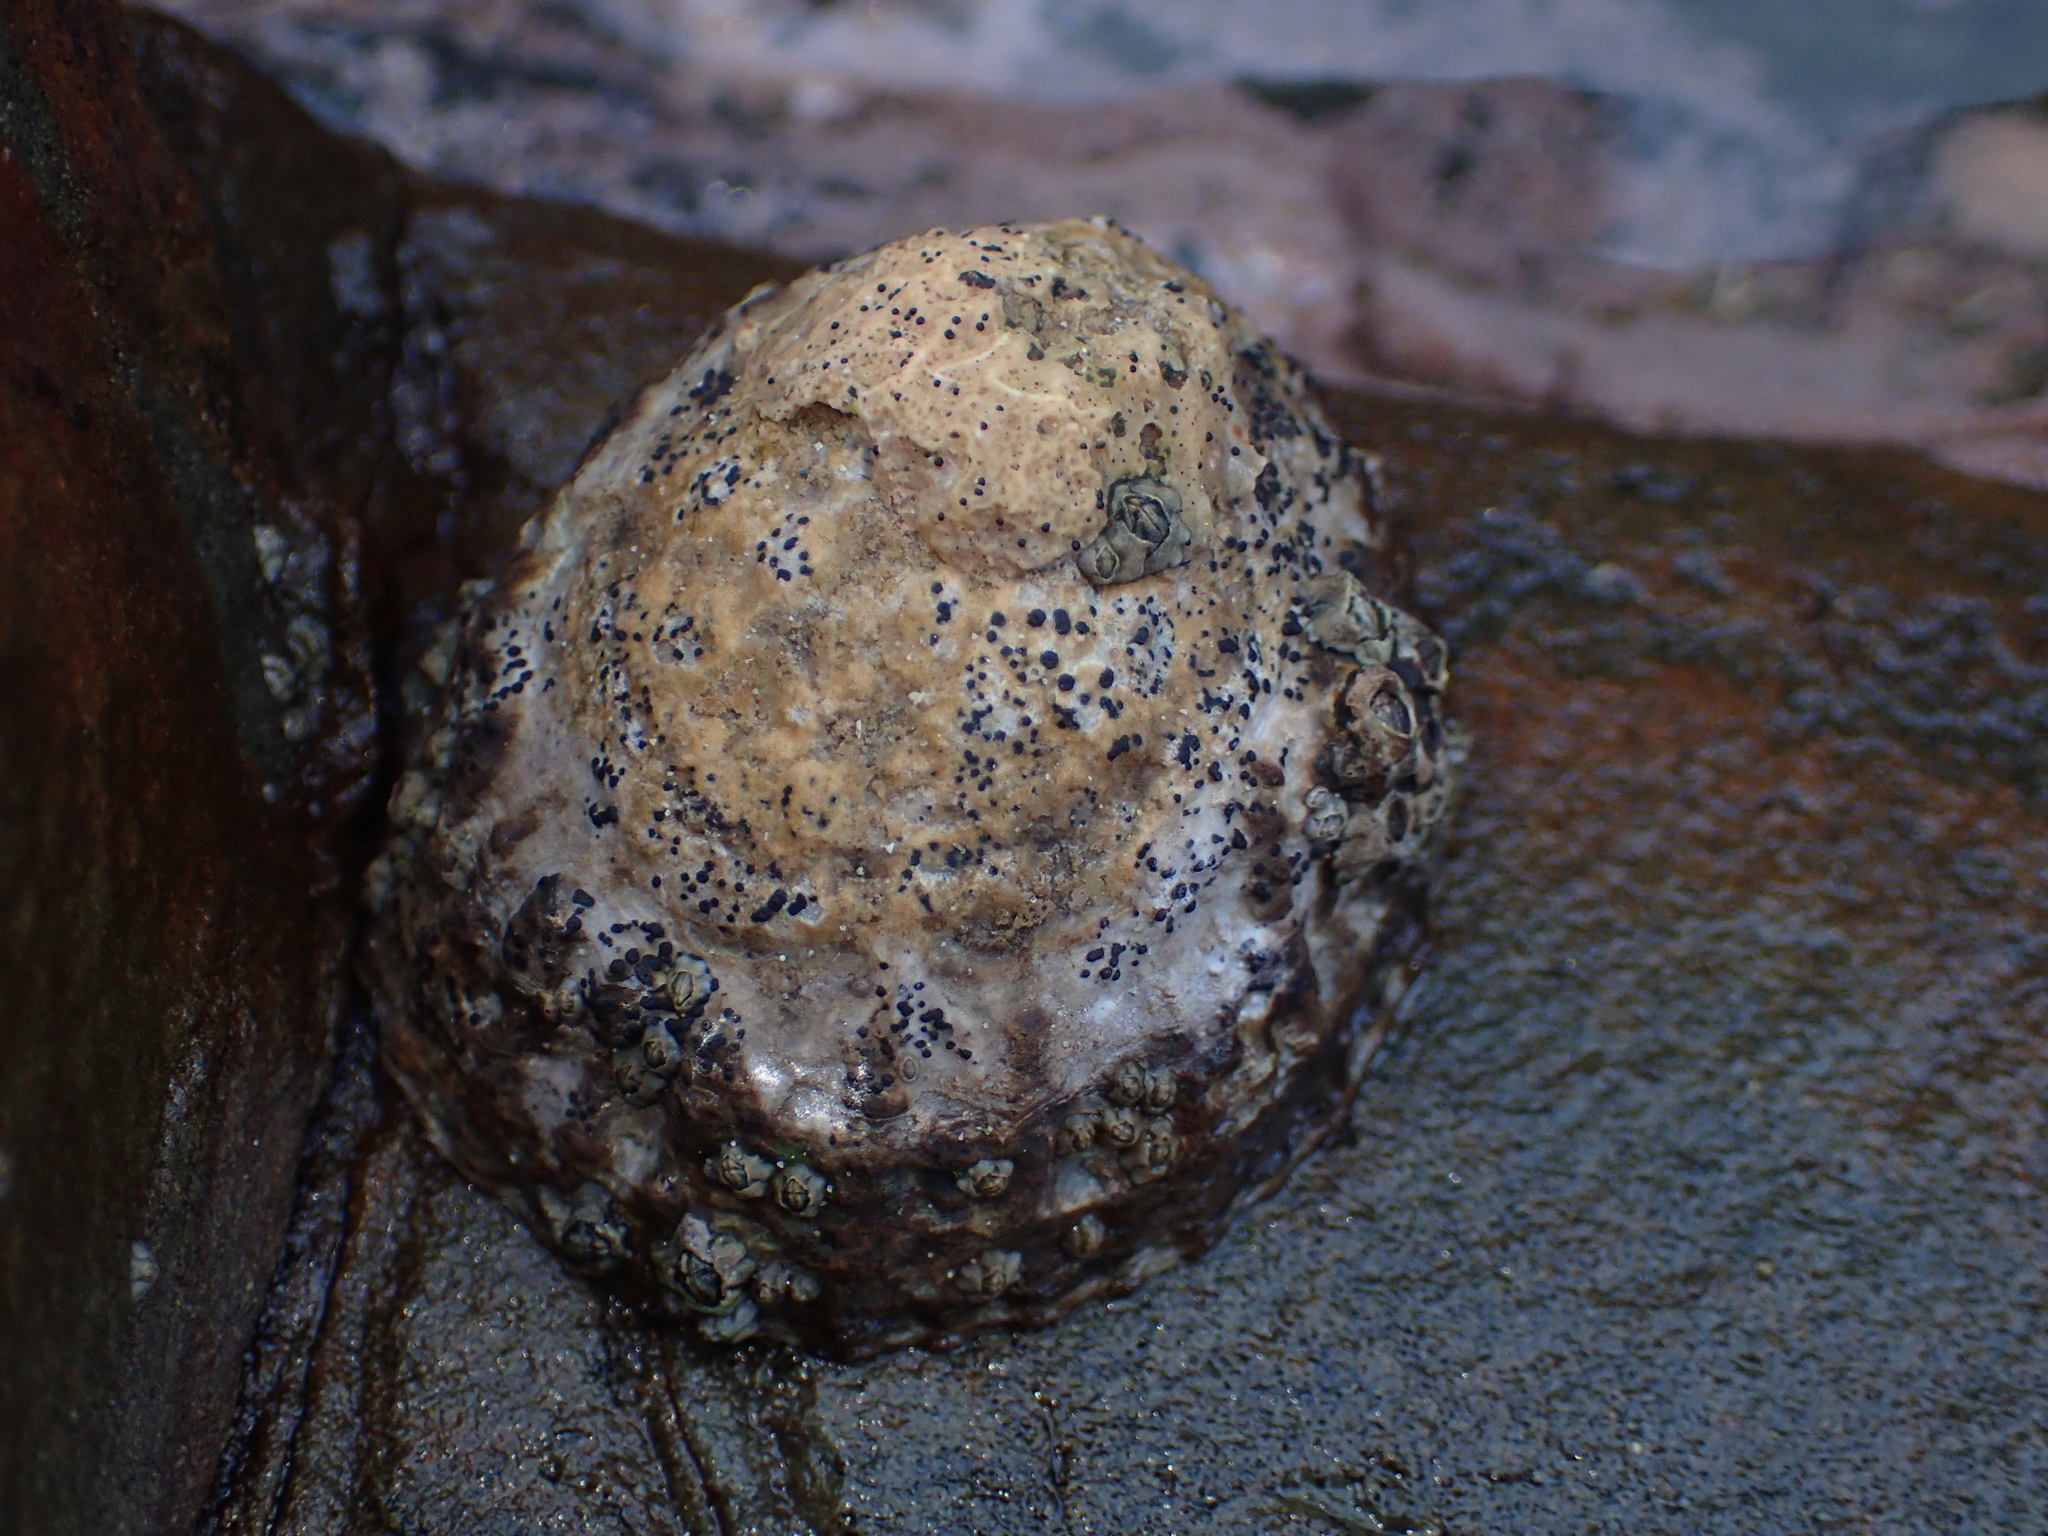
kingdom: Animalia
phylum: Mollusca
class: Gastropoda
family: Nacellidae
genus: Cellana
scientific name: Cellana denticulata
